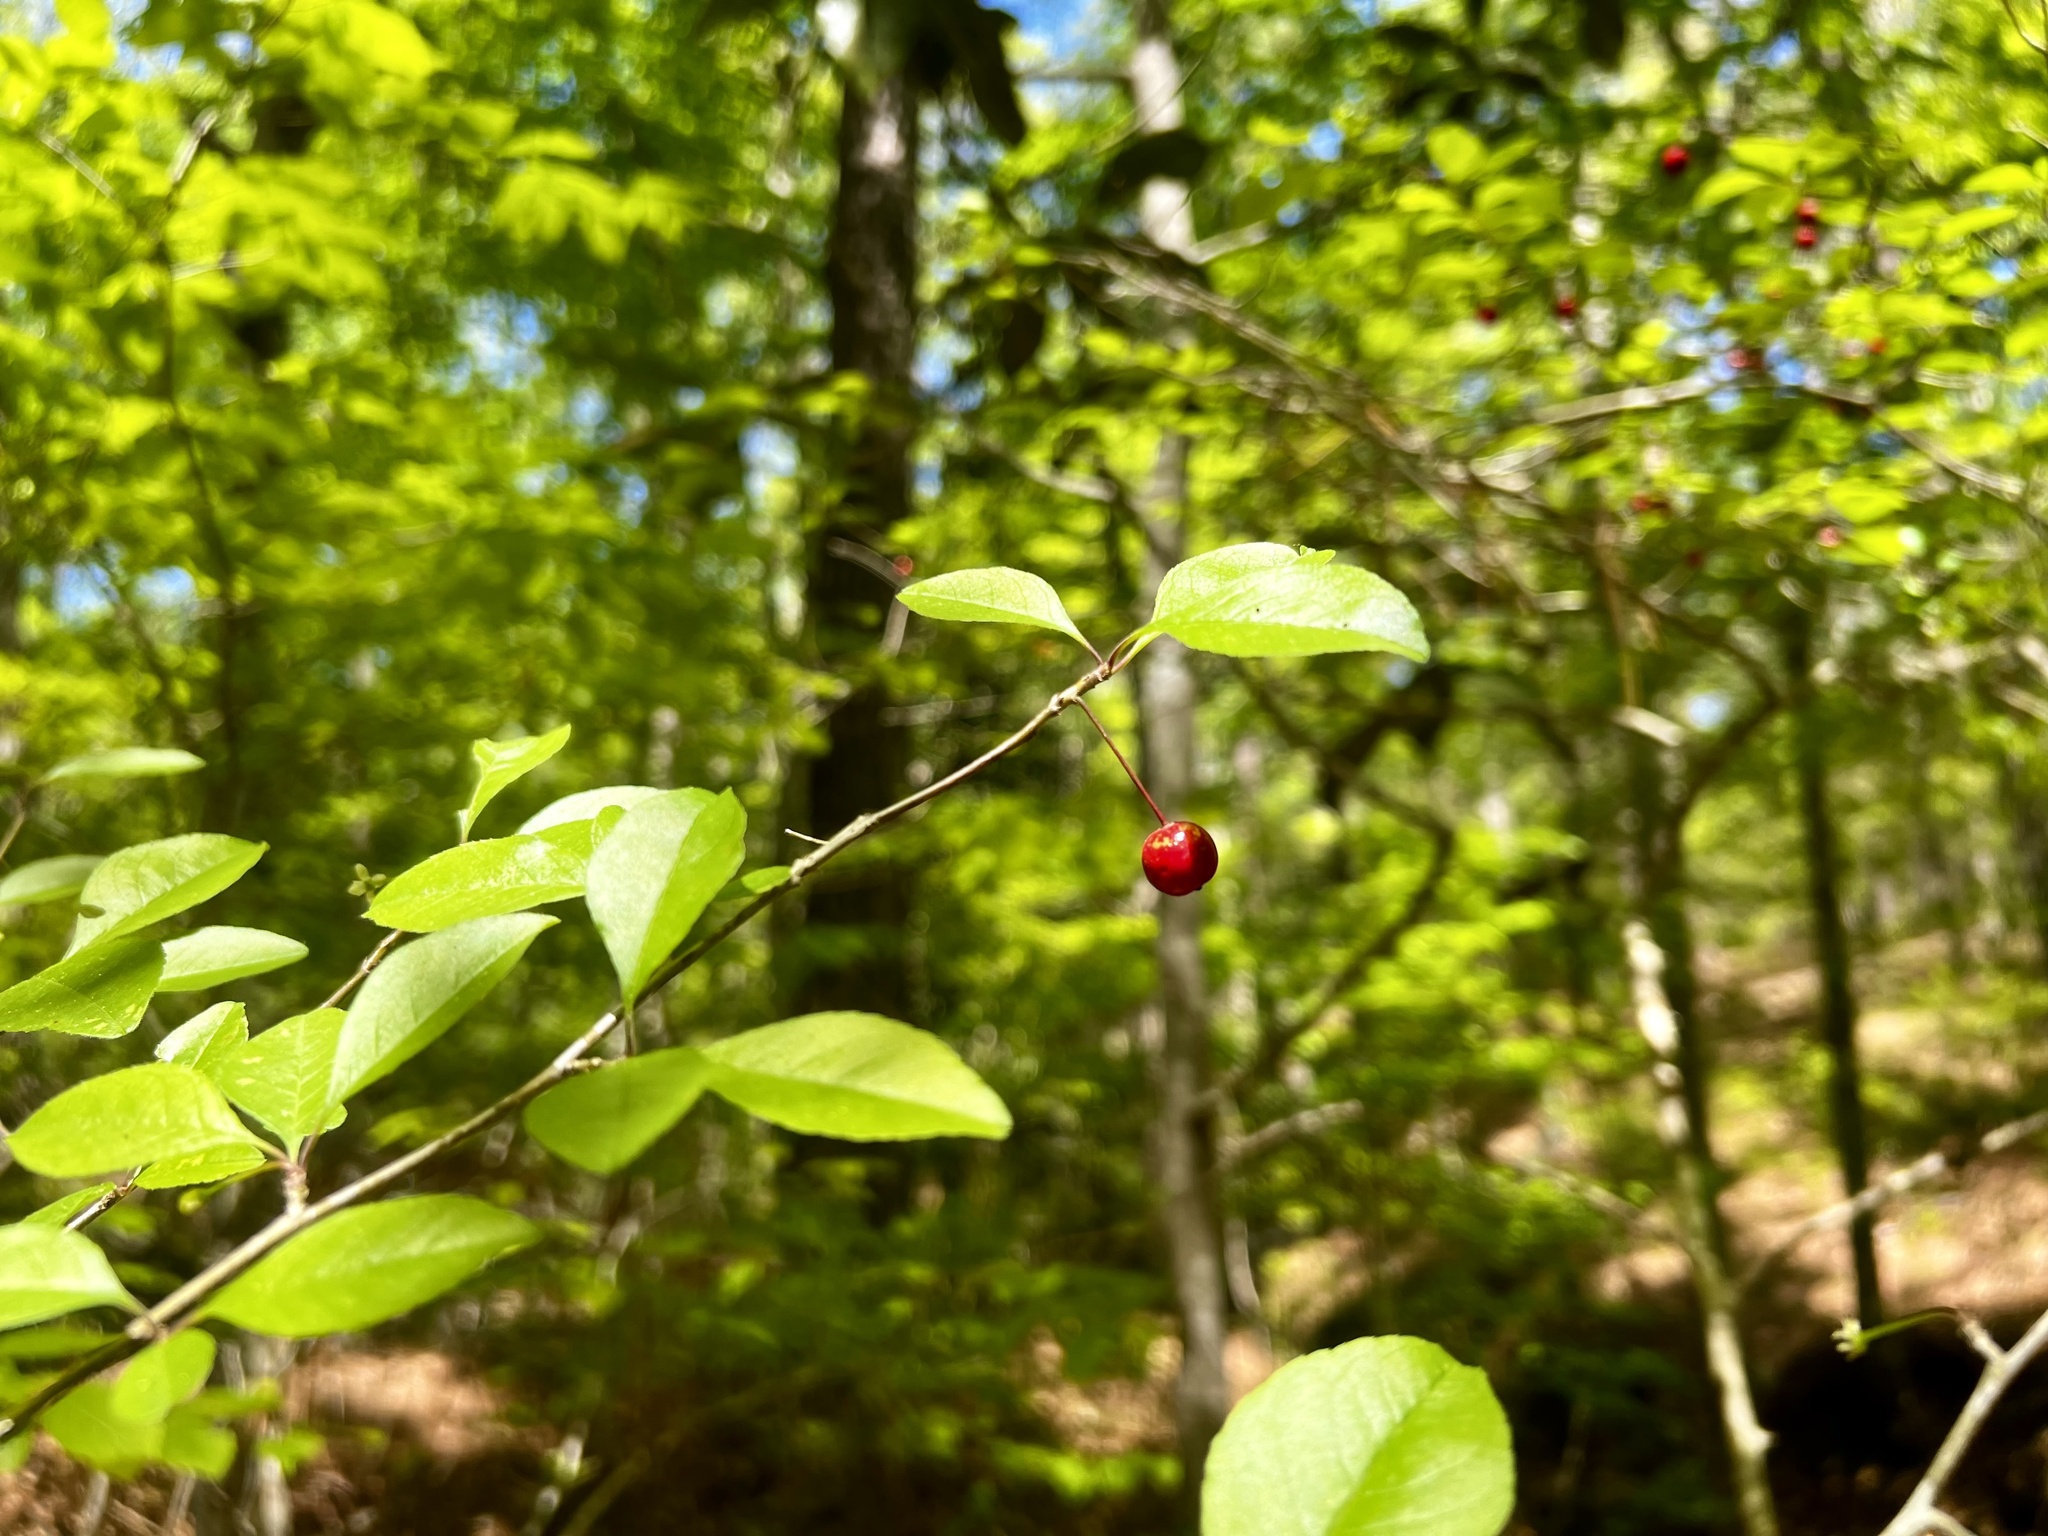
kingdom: Plantae
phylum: Tracheophyta
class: Magnoliopsida
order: Aquifoliales
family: Aquifoliaceae
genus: Ilex
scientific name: Ilex longipes
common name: Georgia holly
